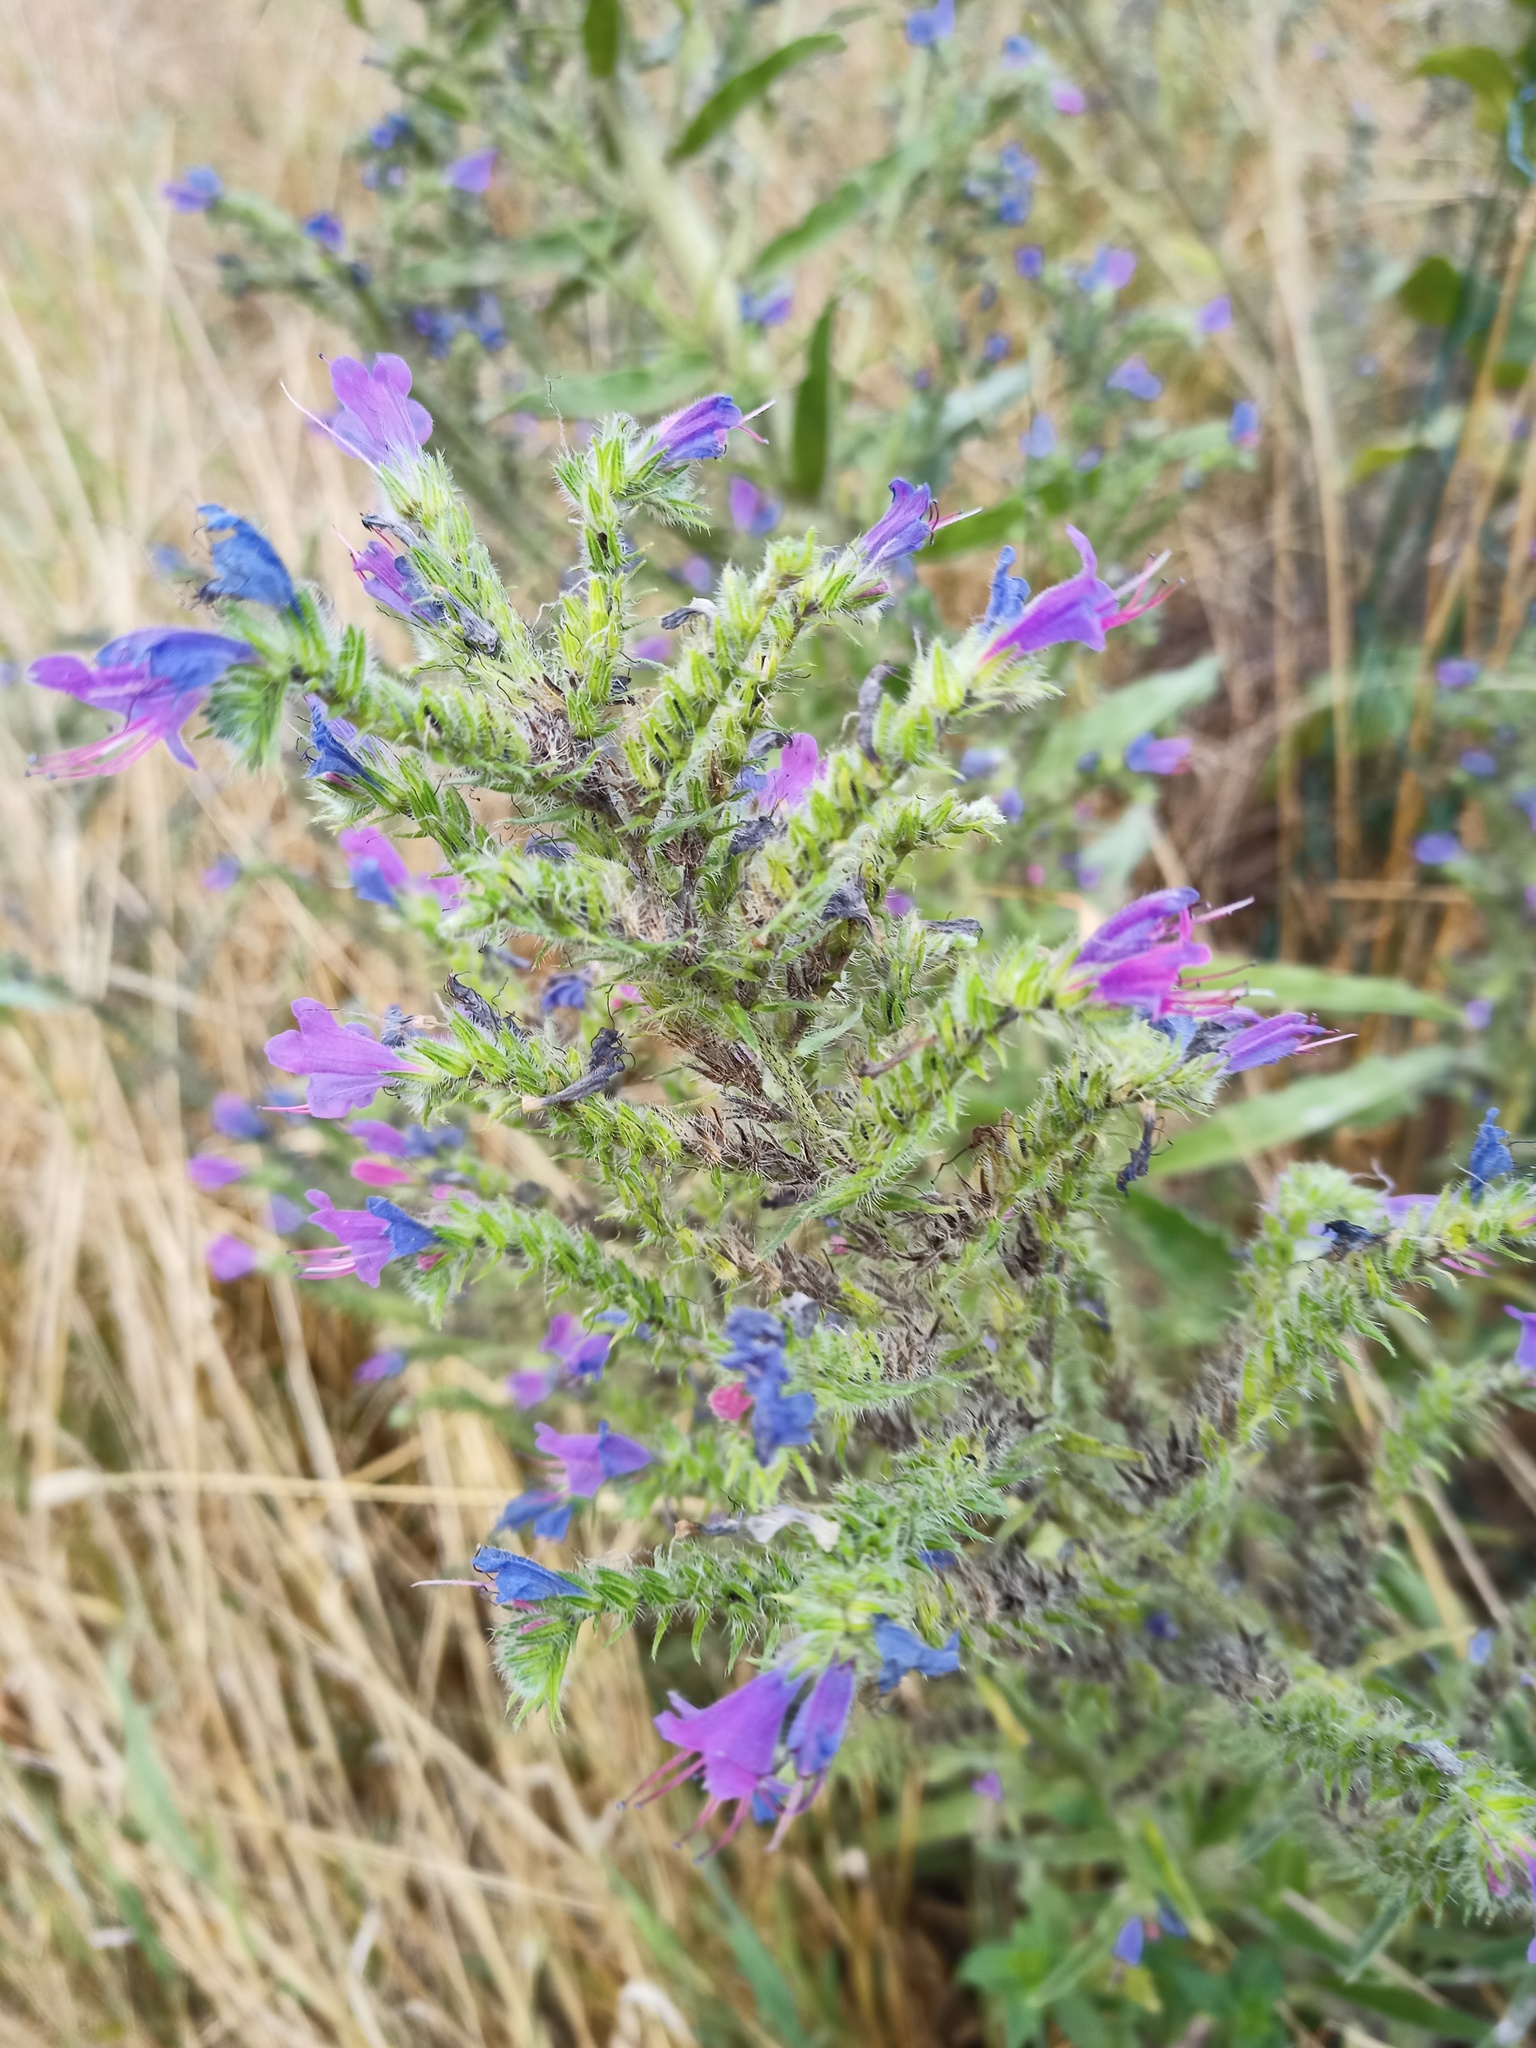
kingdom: Plantae
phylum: Tracheophyta
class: Magnoliopsida
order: Boraginales
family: Boraginaceae
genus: Echium
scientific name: Echium vulgare
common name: Common viper's bugloss
